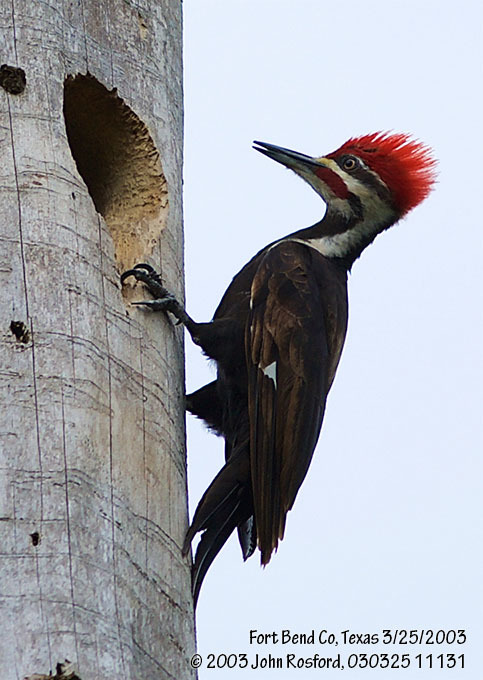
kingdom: Animalia
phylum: Chordata
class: Aves
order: Piciformes
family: Picidae
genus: Dryocopus
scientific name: Dryocopus pileatus
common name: Pileated woodpecker
